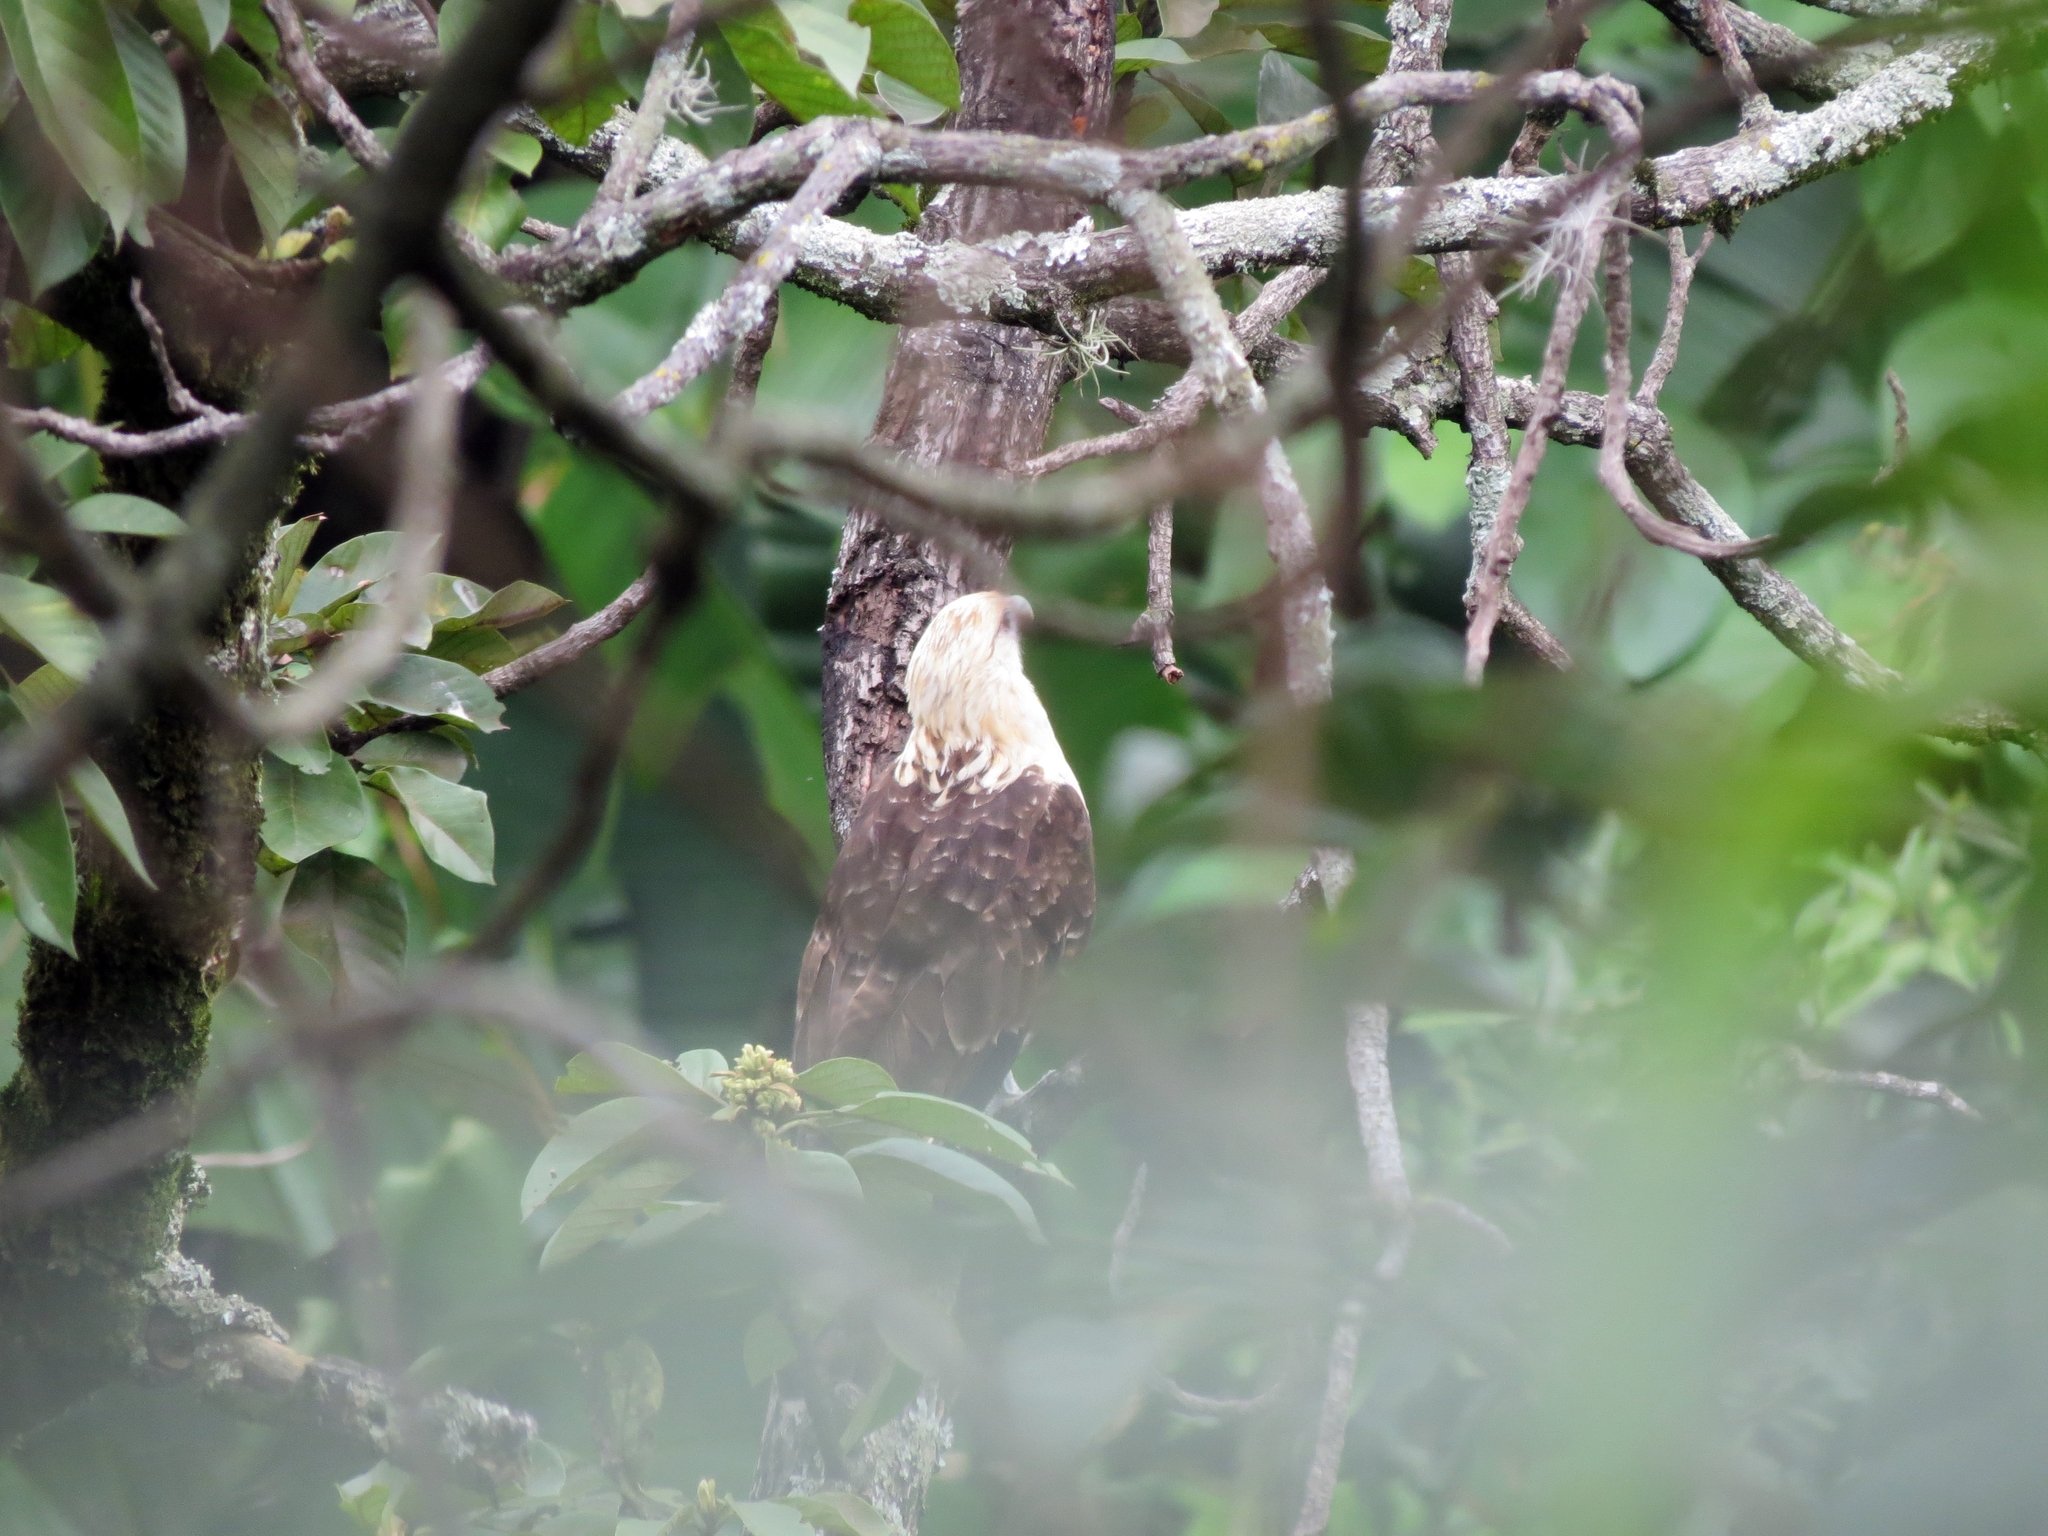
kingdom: Animalia
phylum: Chordata
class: Aves
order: Falconiformes
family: Falconidae
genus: Daptrius
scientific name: Daptrius
